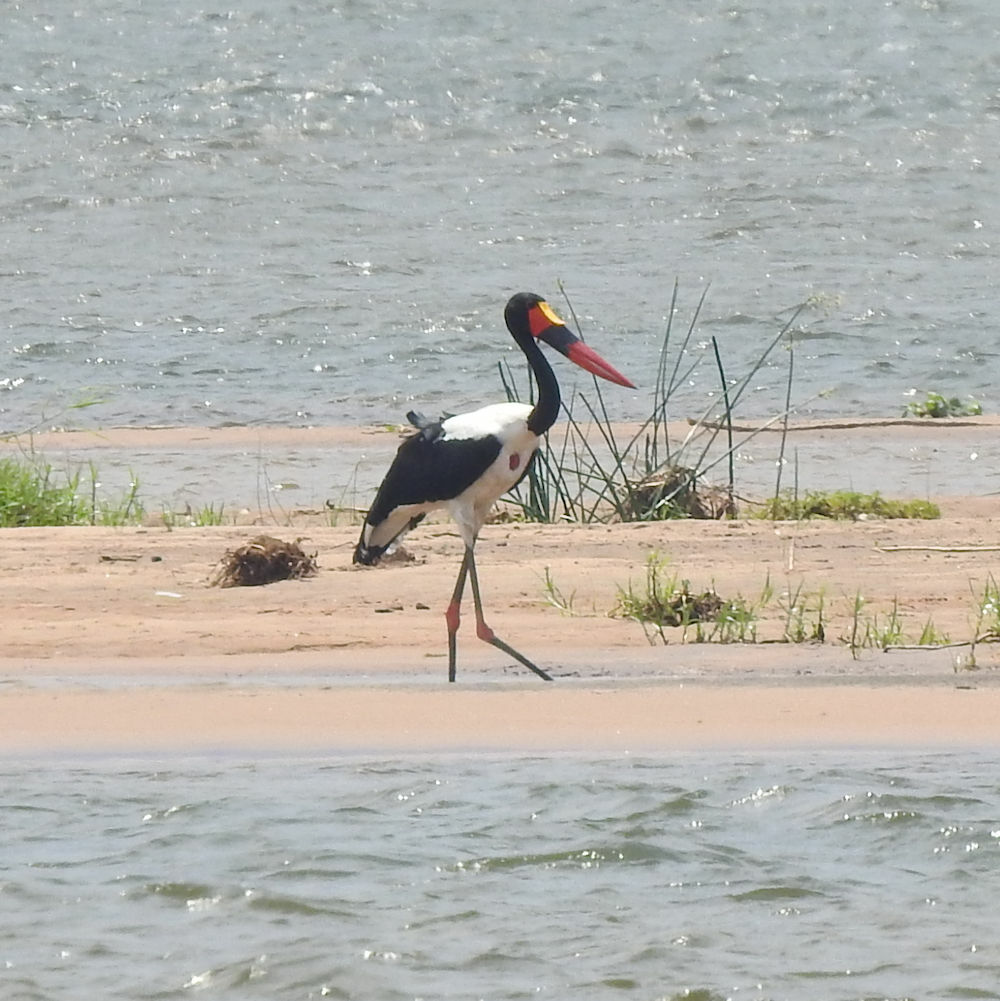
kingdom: Animalia
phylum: Chordata
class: Aves
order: Ciconiiformes
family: Ciconiidae
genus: Ephippiorhynchus
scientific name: Ephippiorhynchus senegalensis
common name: Saddle-billed stork
